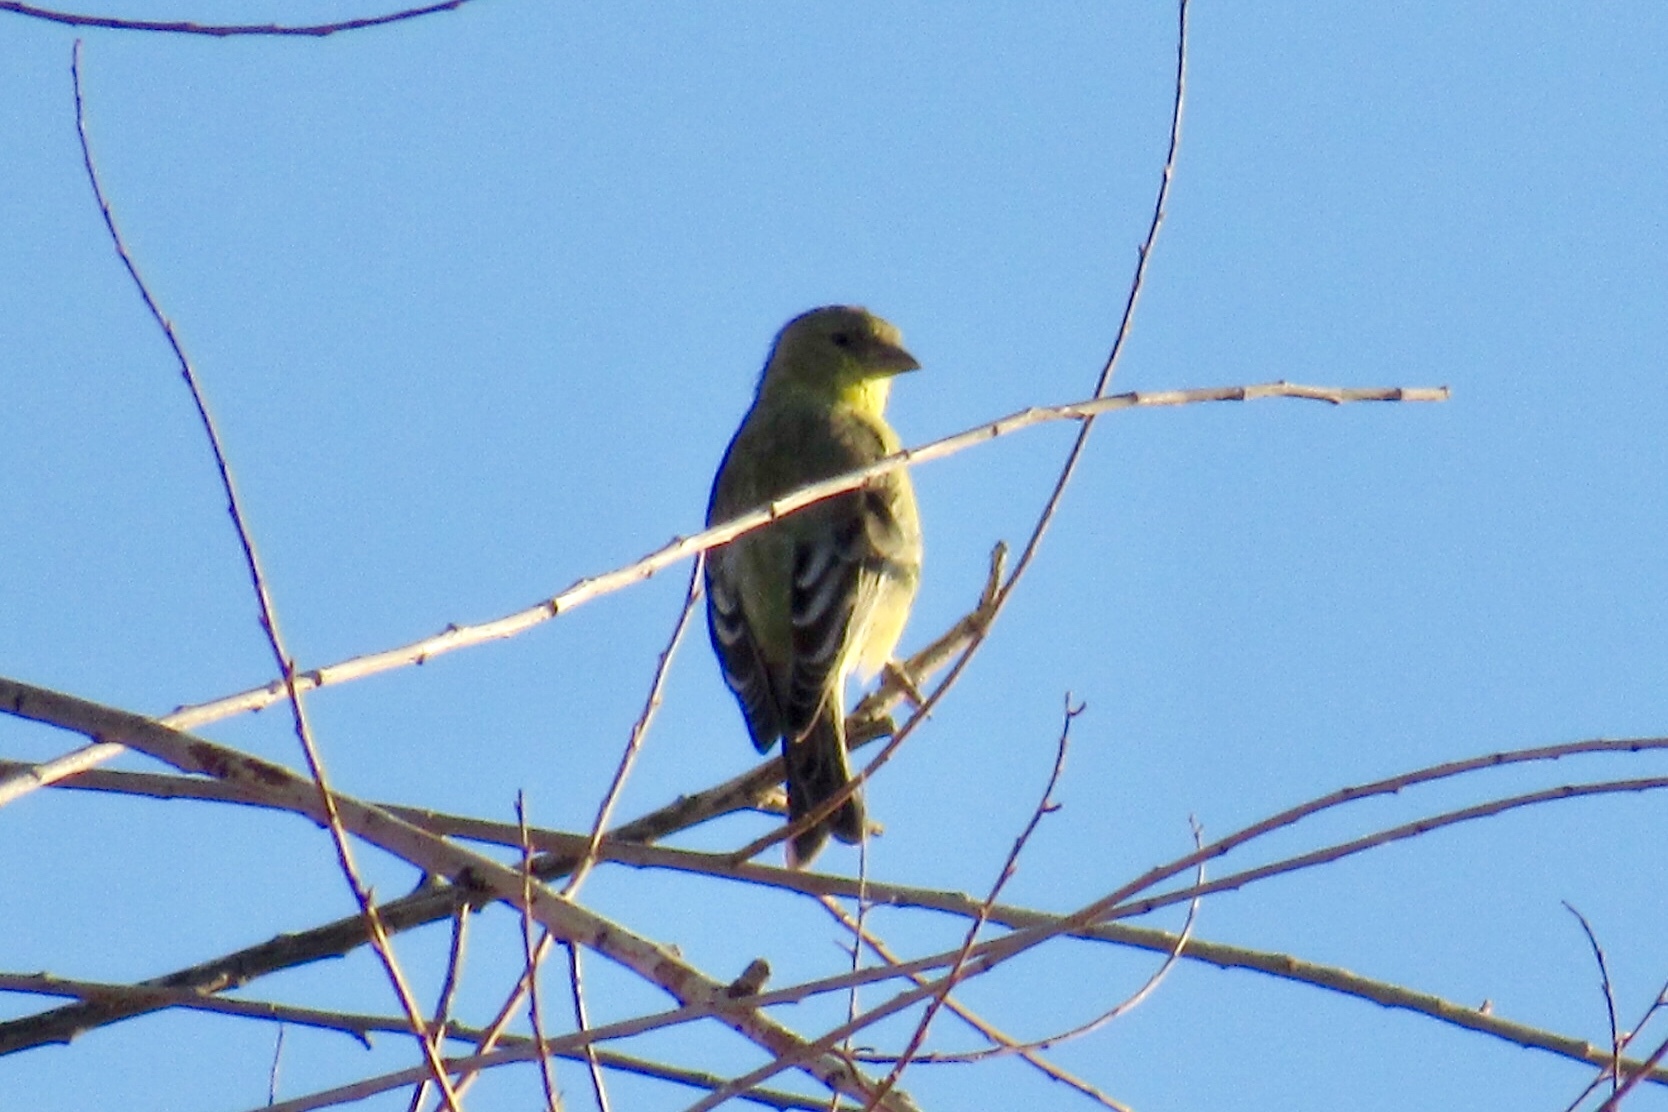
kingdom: Animalia
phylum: Chordata
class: Aves
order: Passeriformes
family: Fringillidae
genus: Spinus
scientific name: Spinus psaltria
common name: Lesser goldfinch
